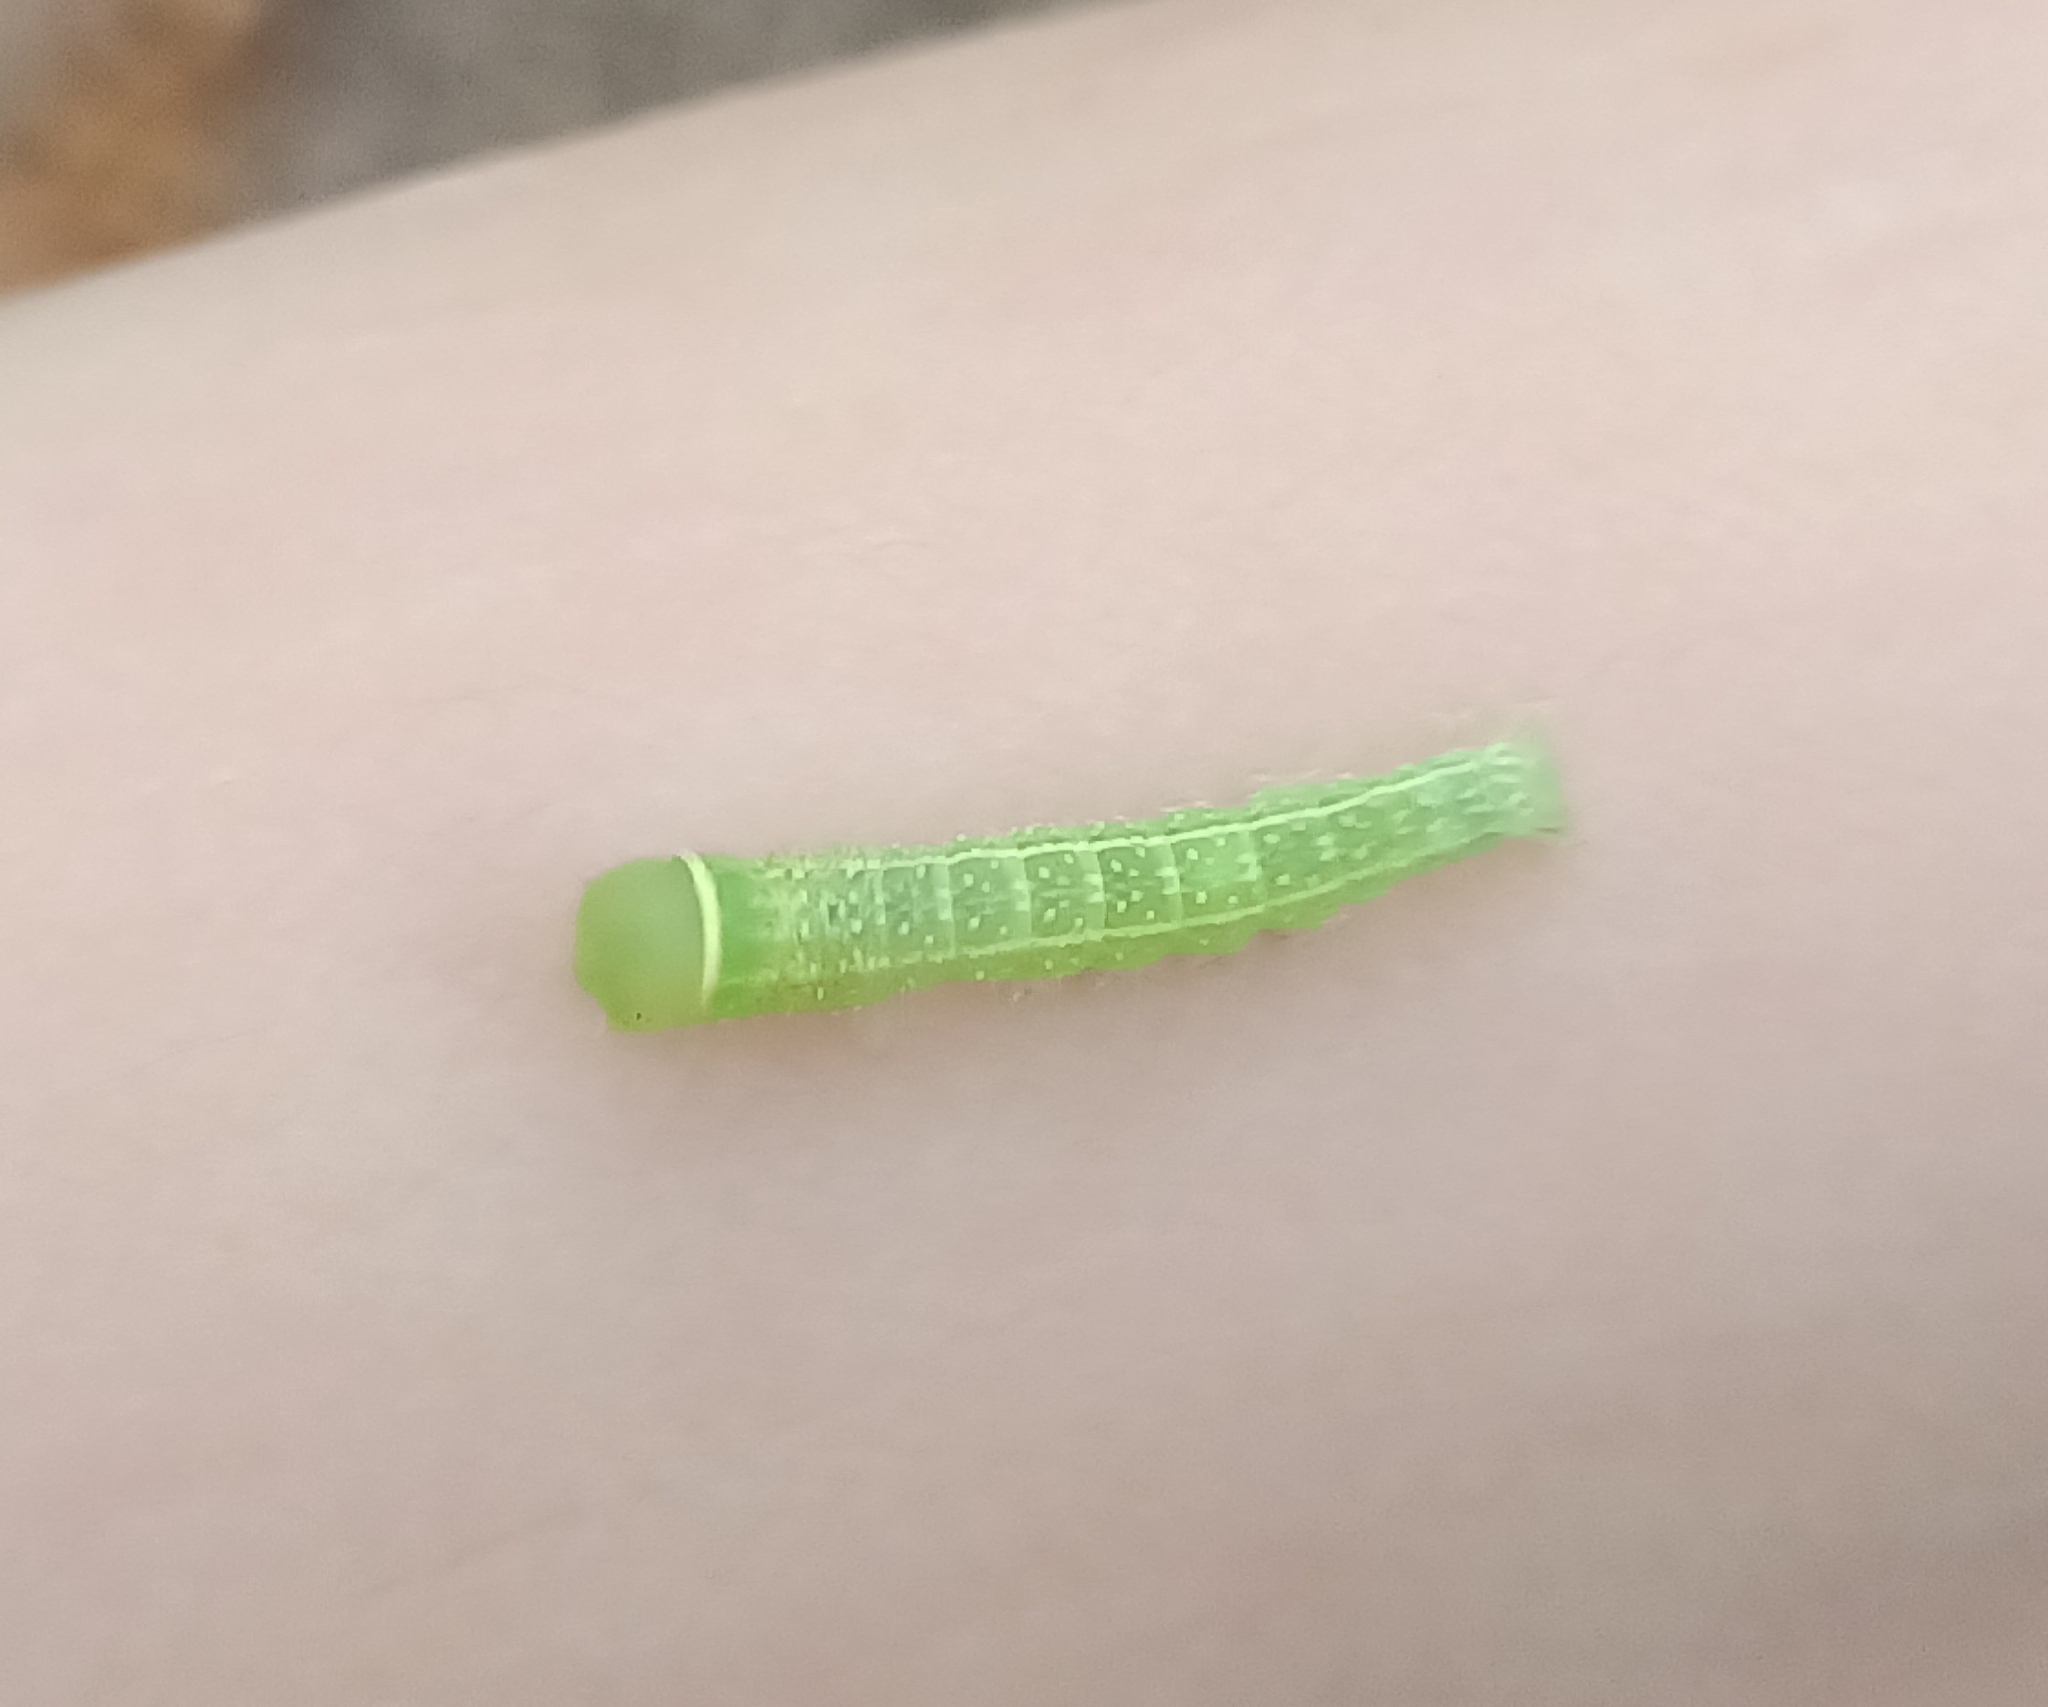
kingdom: Animalia
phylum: Arthropoda
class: Insecta
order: Lepidoptera
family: Nolidae
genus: Pseudoips
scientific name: Pseudoips prasinana
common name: Green silver-lines
